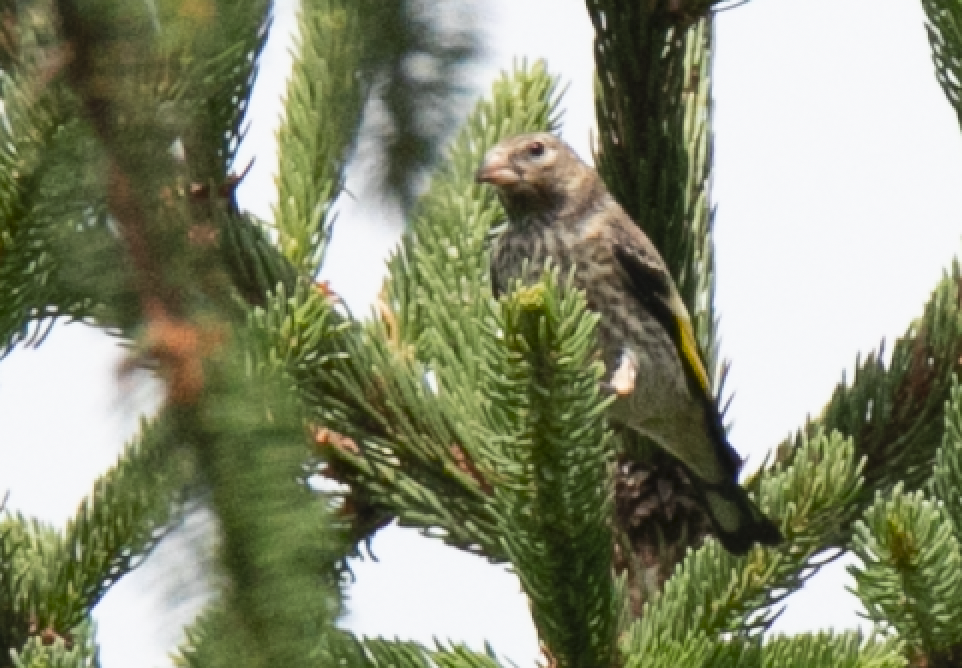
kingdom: Animalia
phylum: Chordata
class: Aves
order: Passeriformes
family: Fringillidae
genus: Carduelis
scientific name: Carduelis carduelis
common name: European goldfinch
